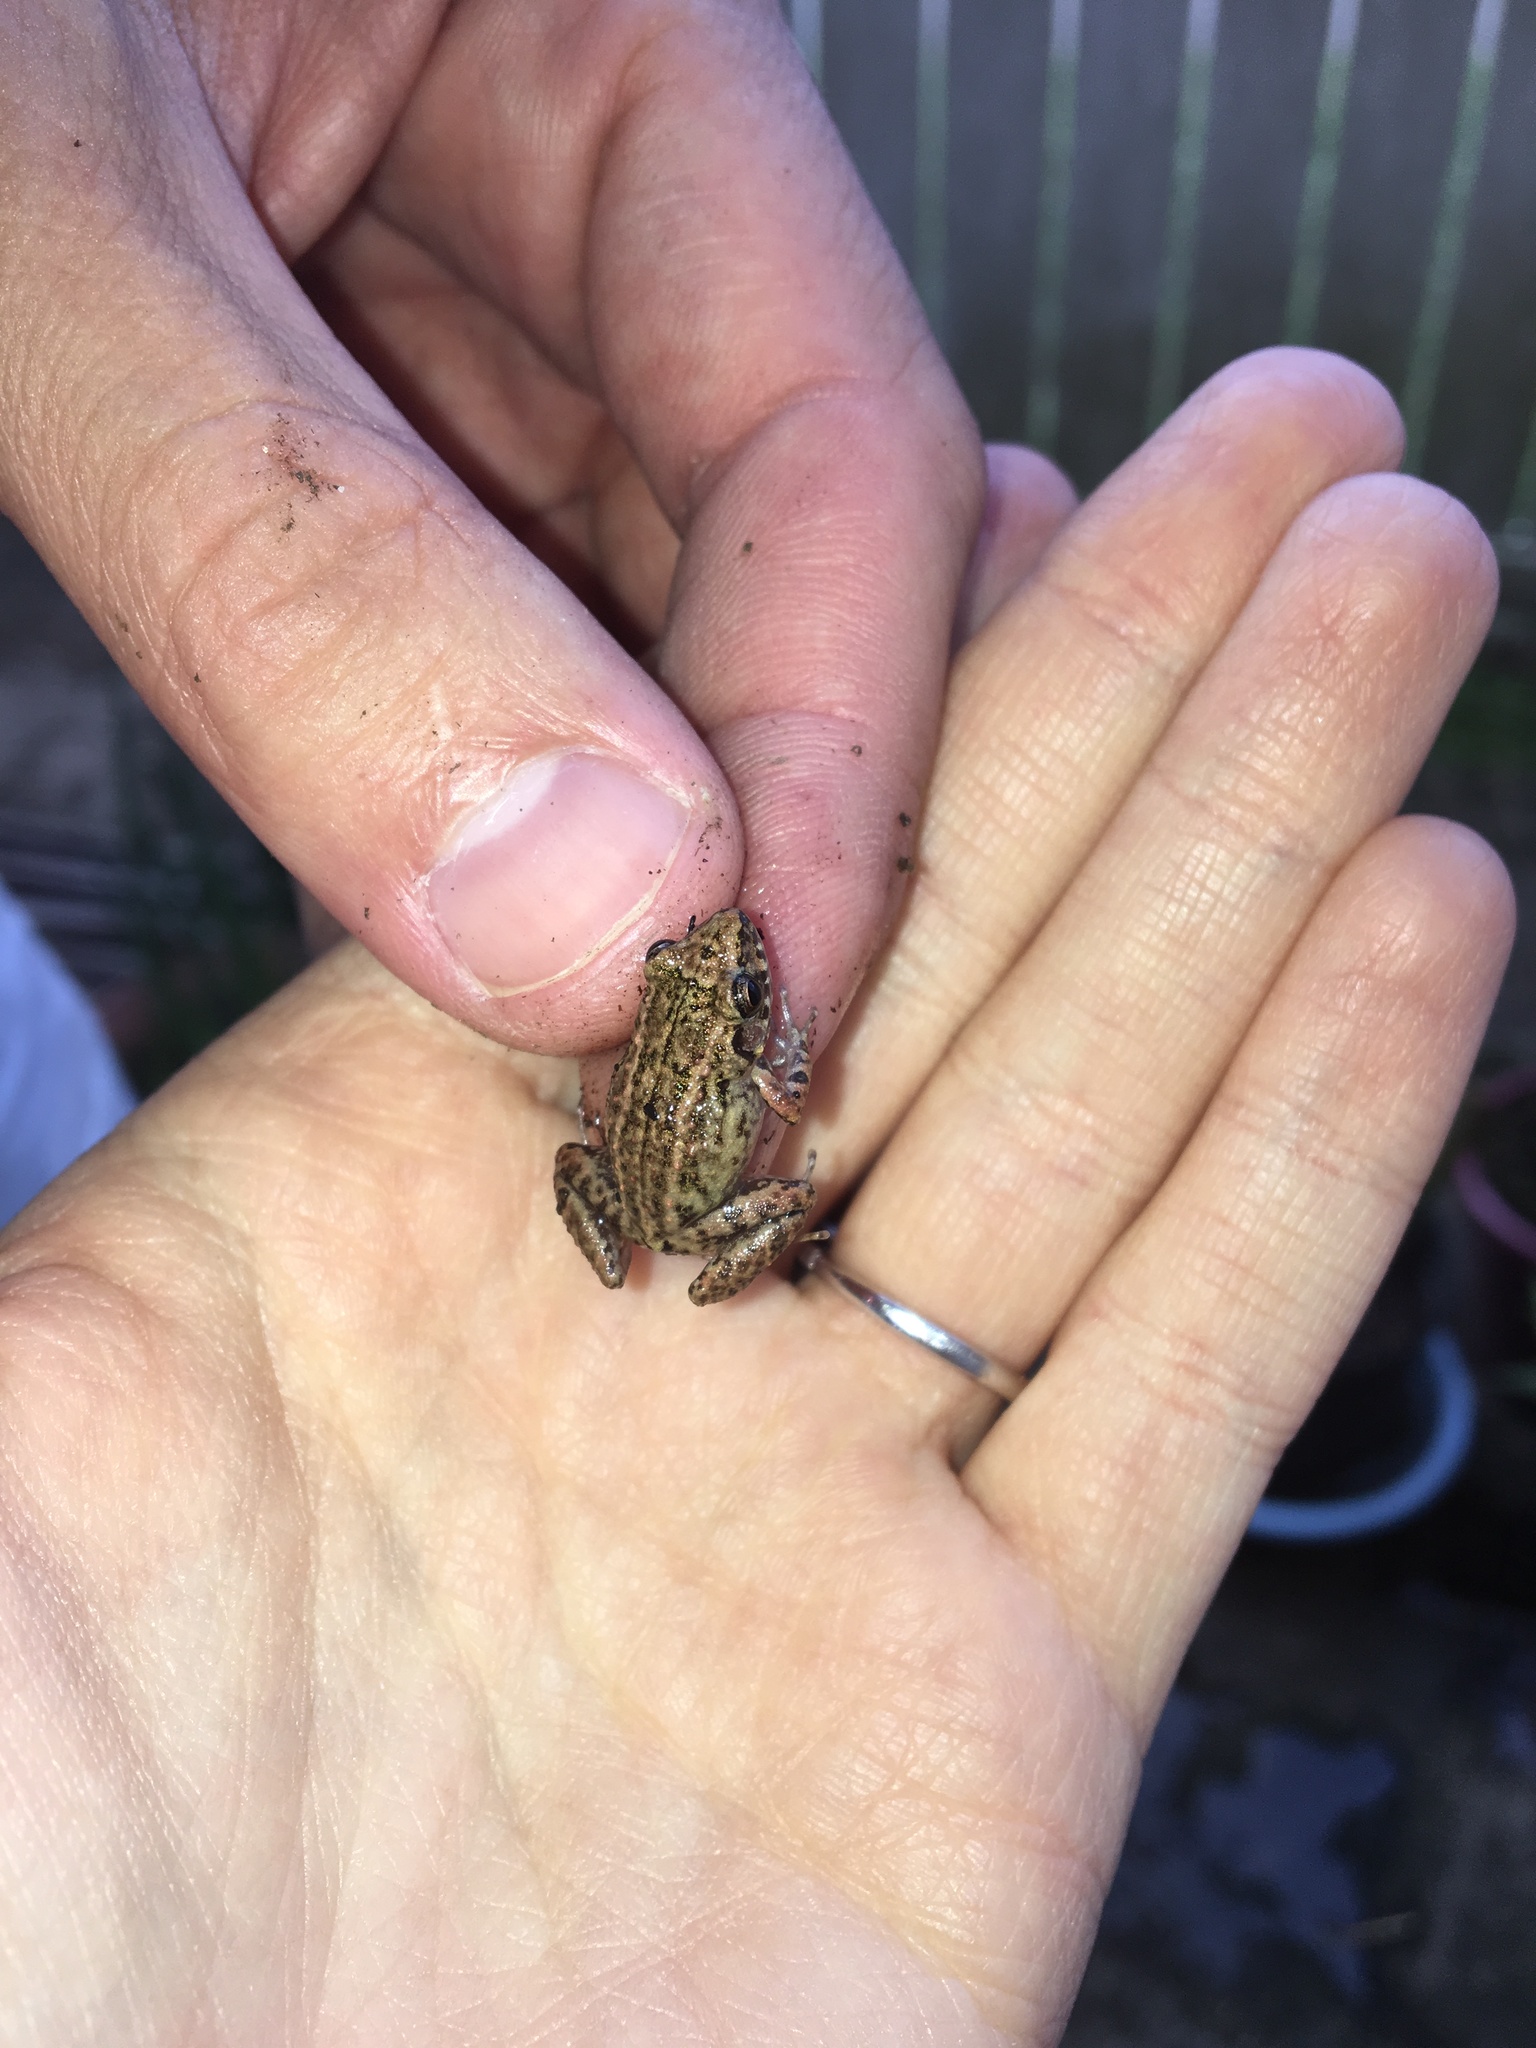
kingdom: Animalia
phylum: Chordata
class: Amphibia
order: Anura
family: Eleutherodactylidae
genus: Eleutherodactylus
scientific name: Eleutherodactylus planirostris
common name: Greenhouse frog
